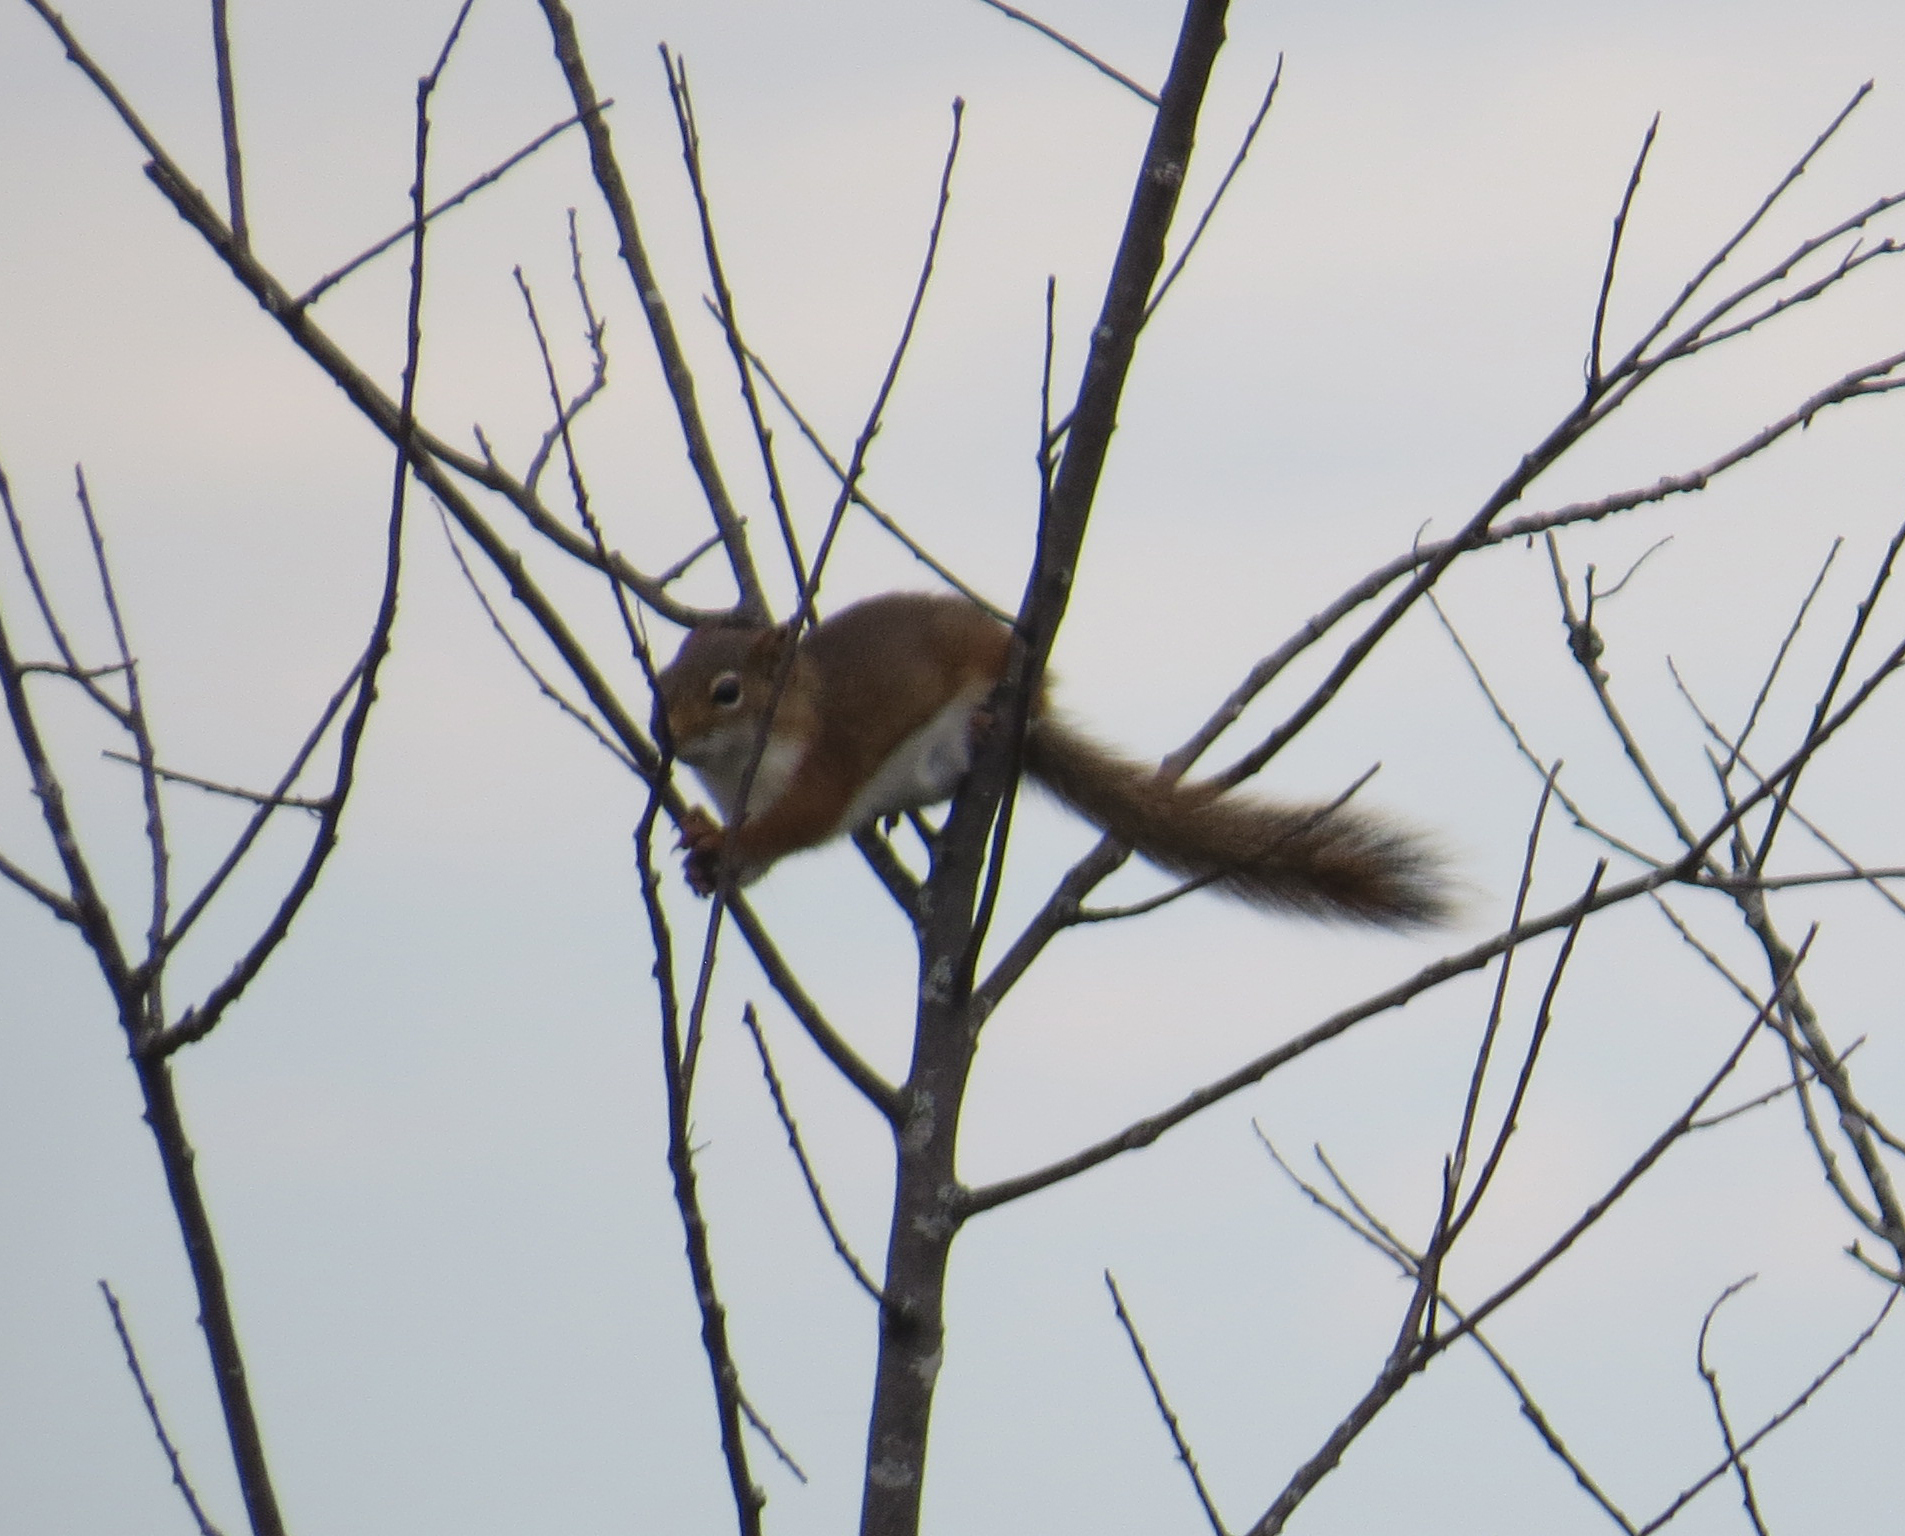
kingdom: Animalia
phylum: Chordata
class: Mammalia
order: Rodentia
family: Sciuridae
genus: Tamiasciurus
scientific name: Tamiasciurus hudsonicus
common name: Red squirrel
